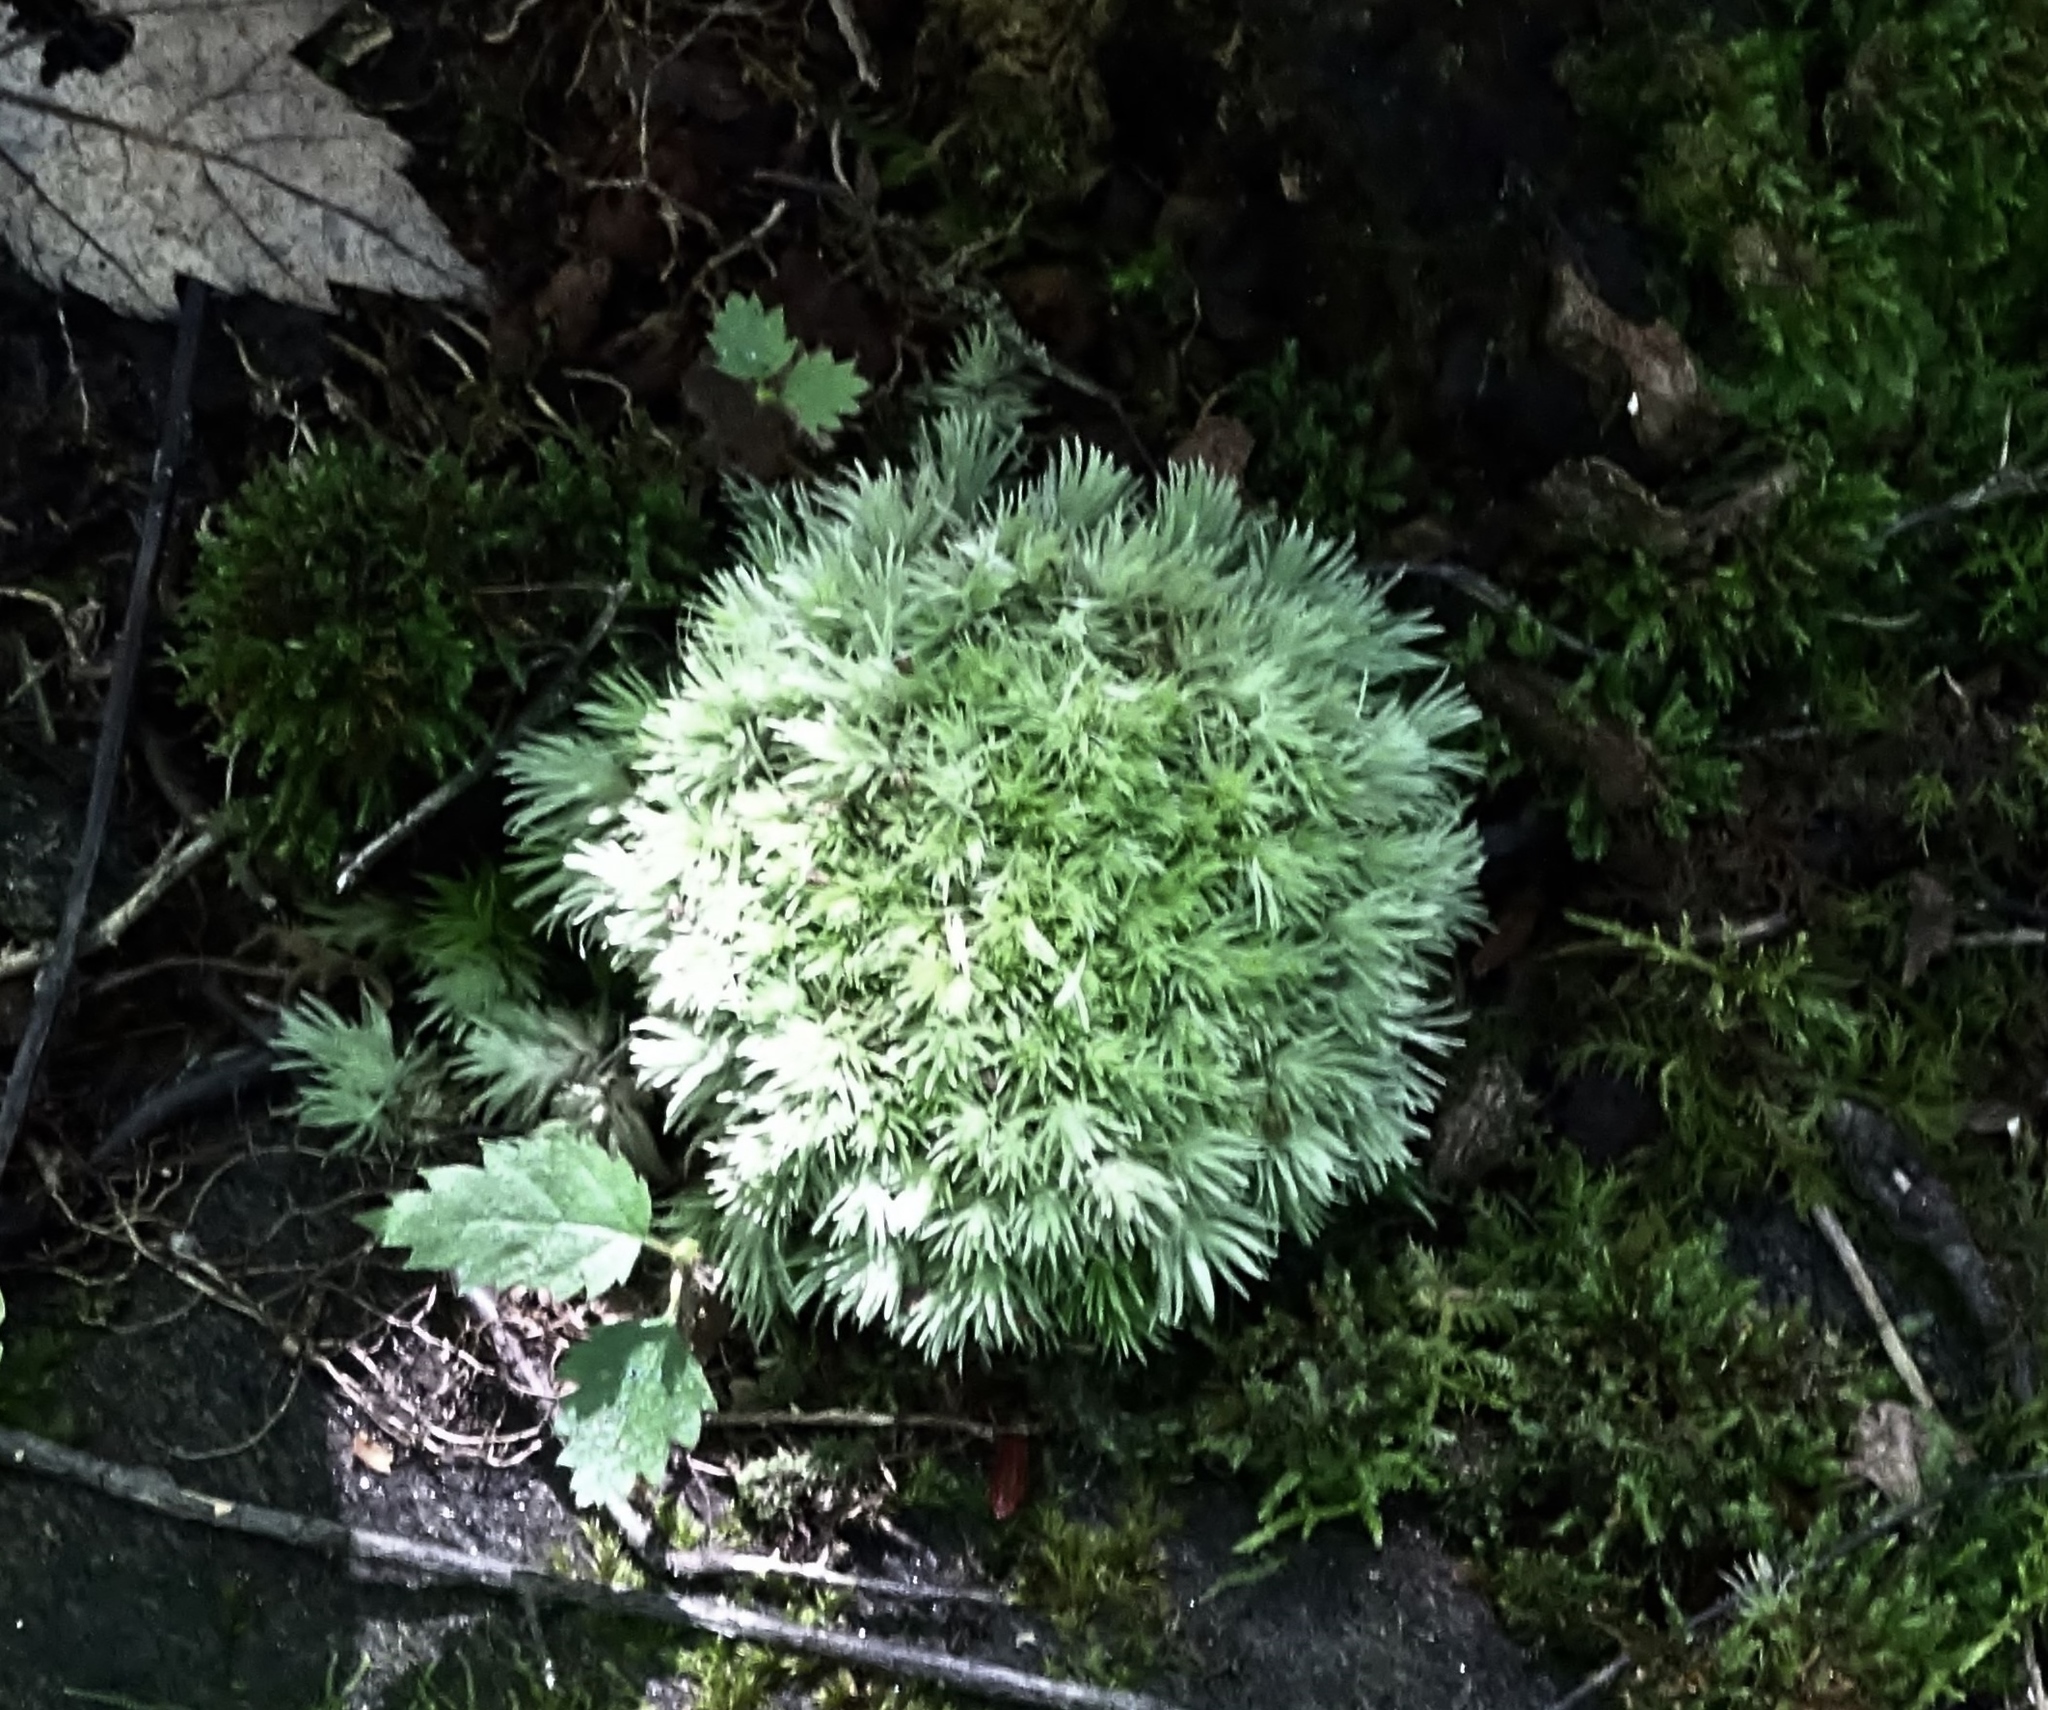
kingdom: Plantae
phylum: Bryophyta
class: Bryopsida
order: Dicranales
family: Leucobryaceae
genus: Leucobryum
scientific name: Leucobryum glaucum
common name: Large white-moss
